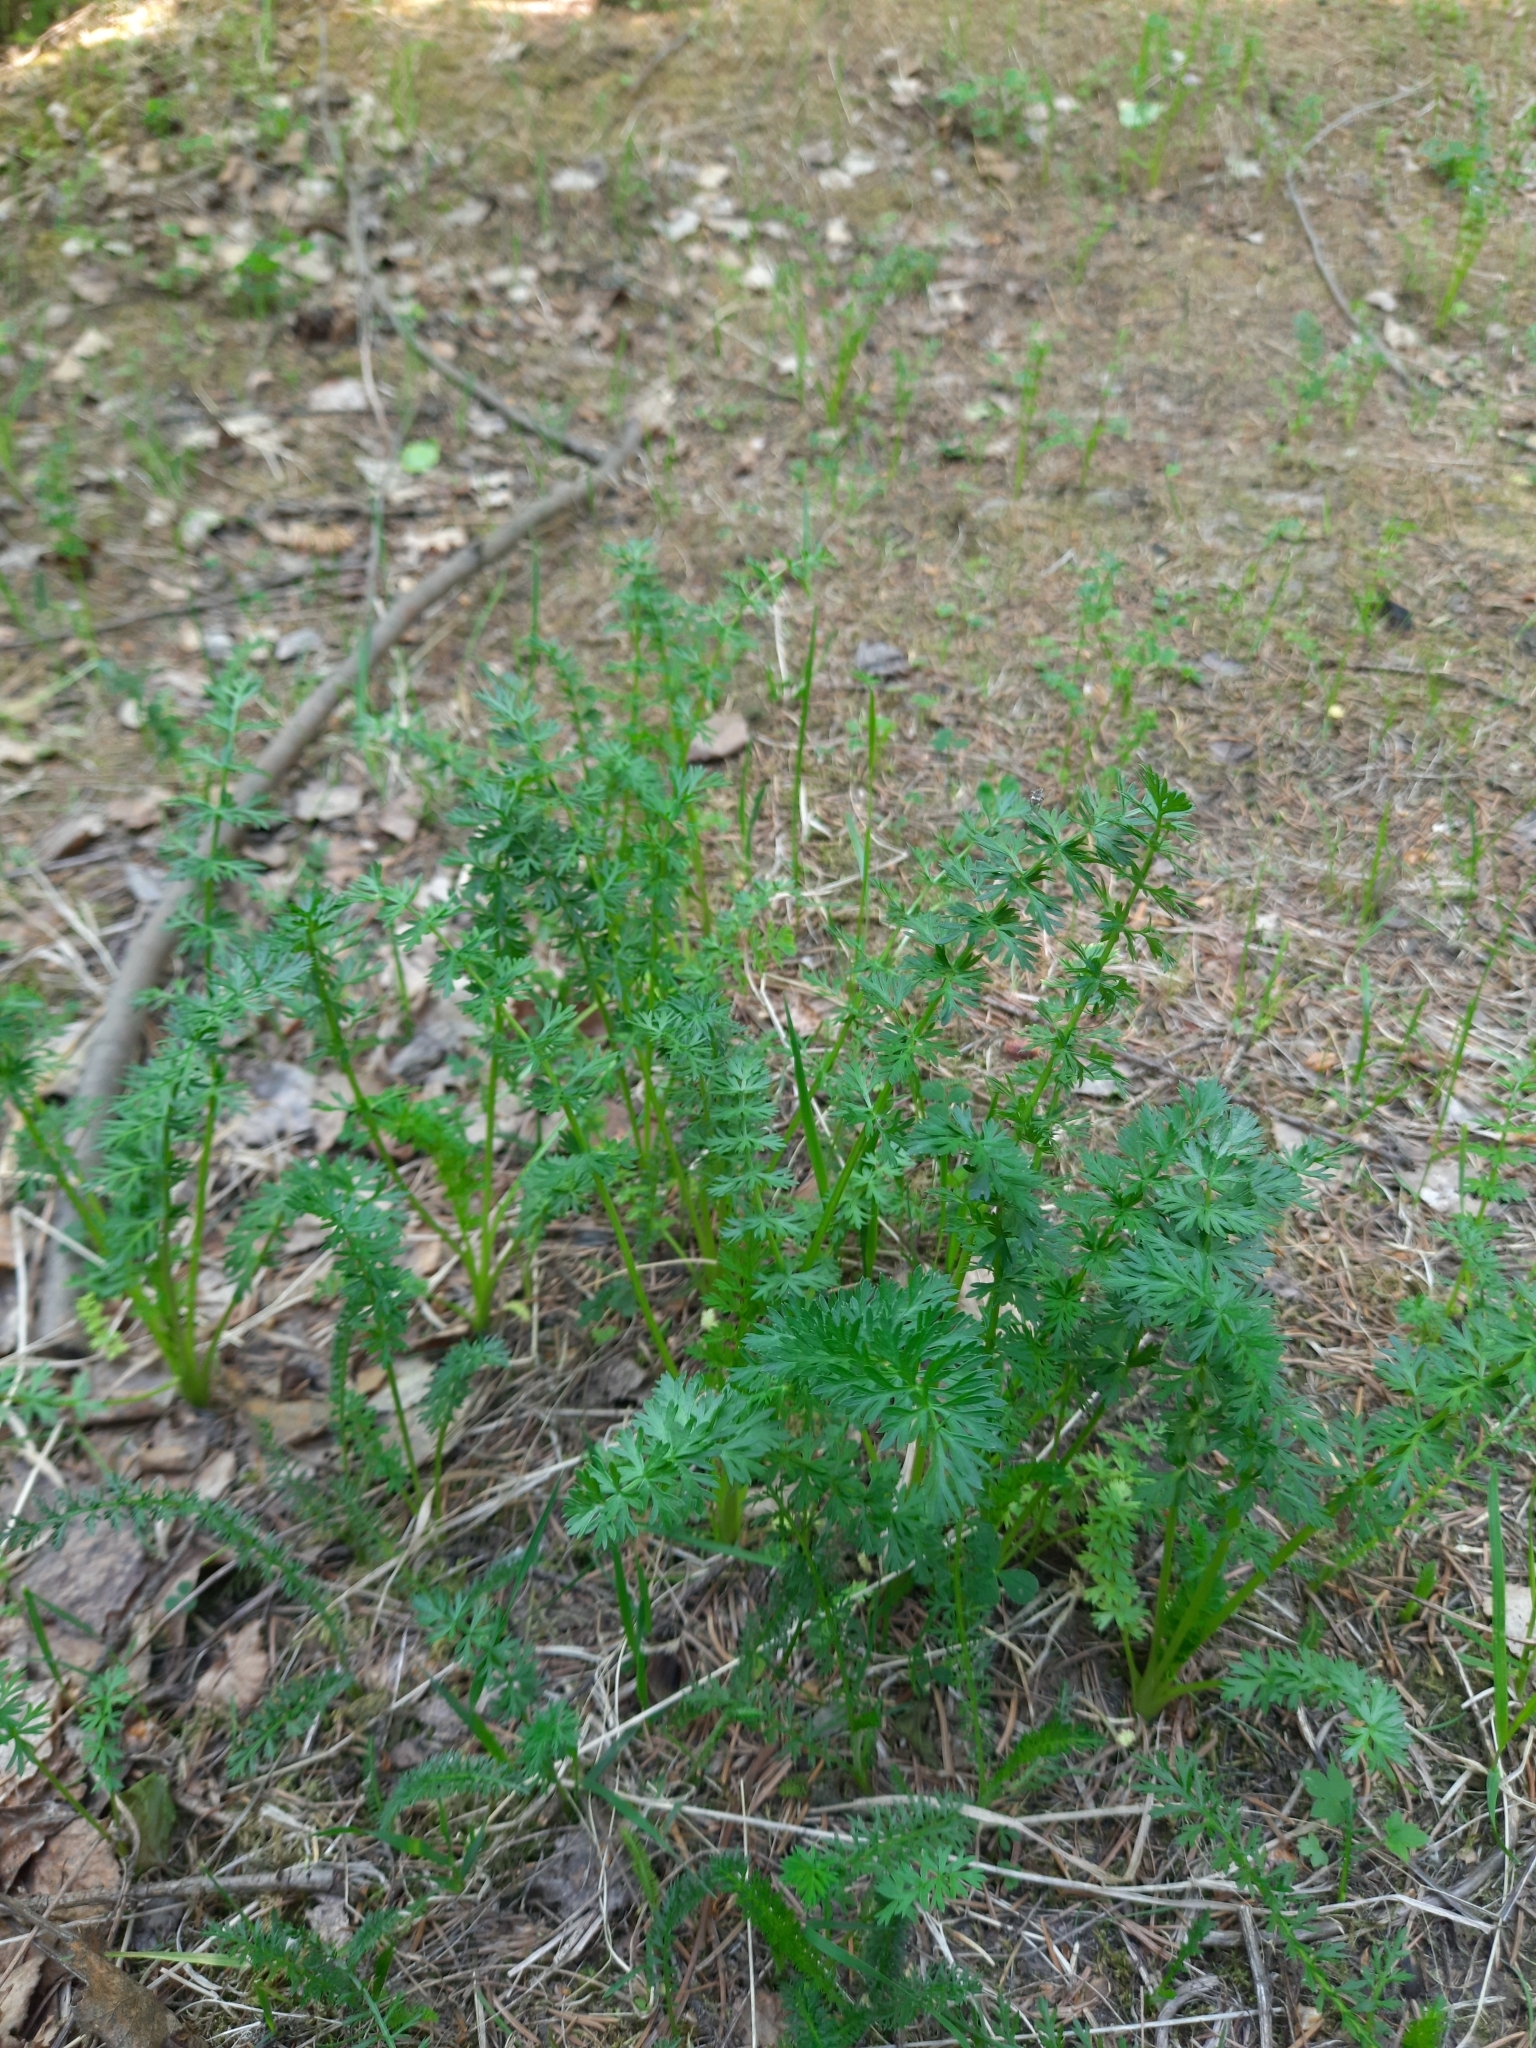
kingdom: Plantae
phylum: Tracheophyta
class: Magnoliopsida
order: Apiales
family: Apiaceae
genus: Carum
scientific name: Carum carvi
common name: Caraway
